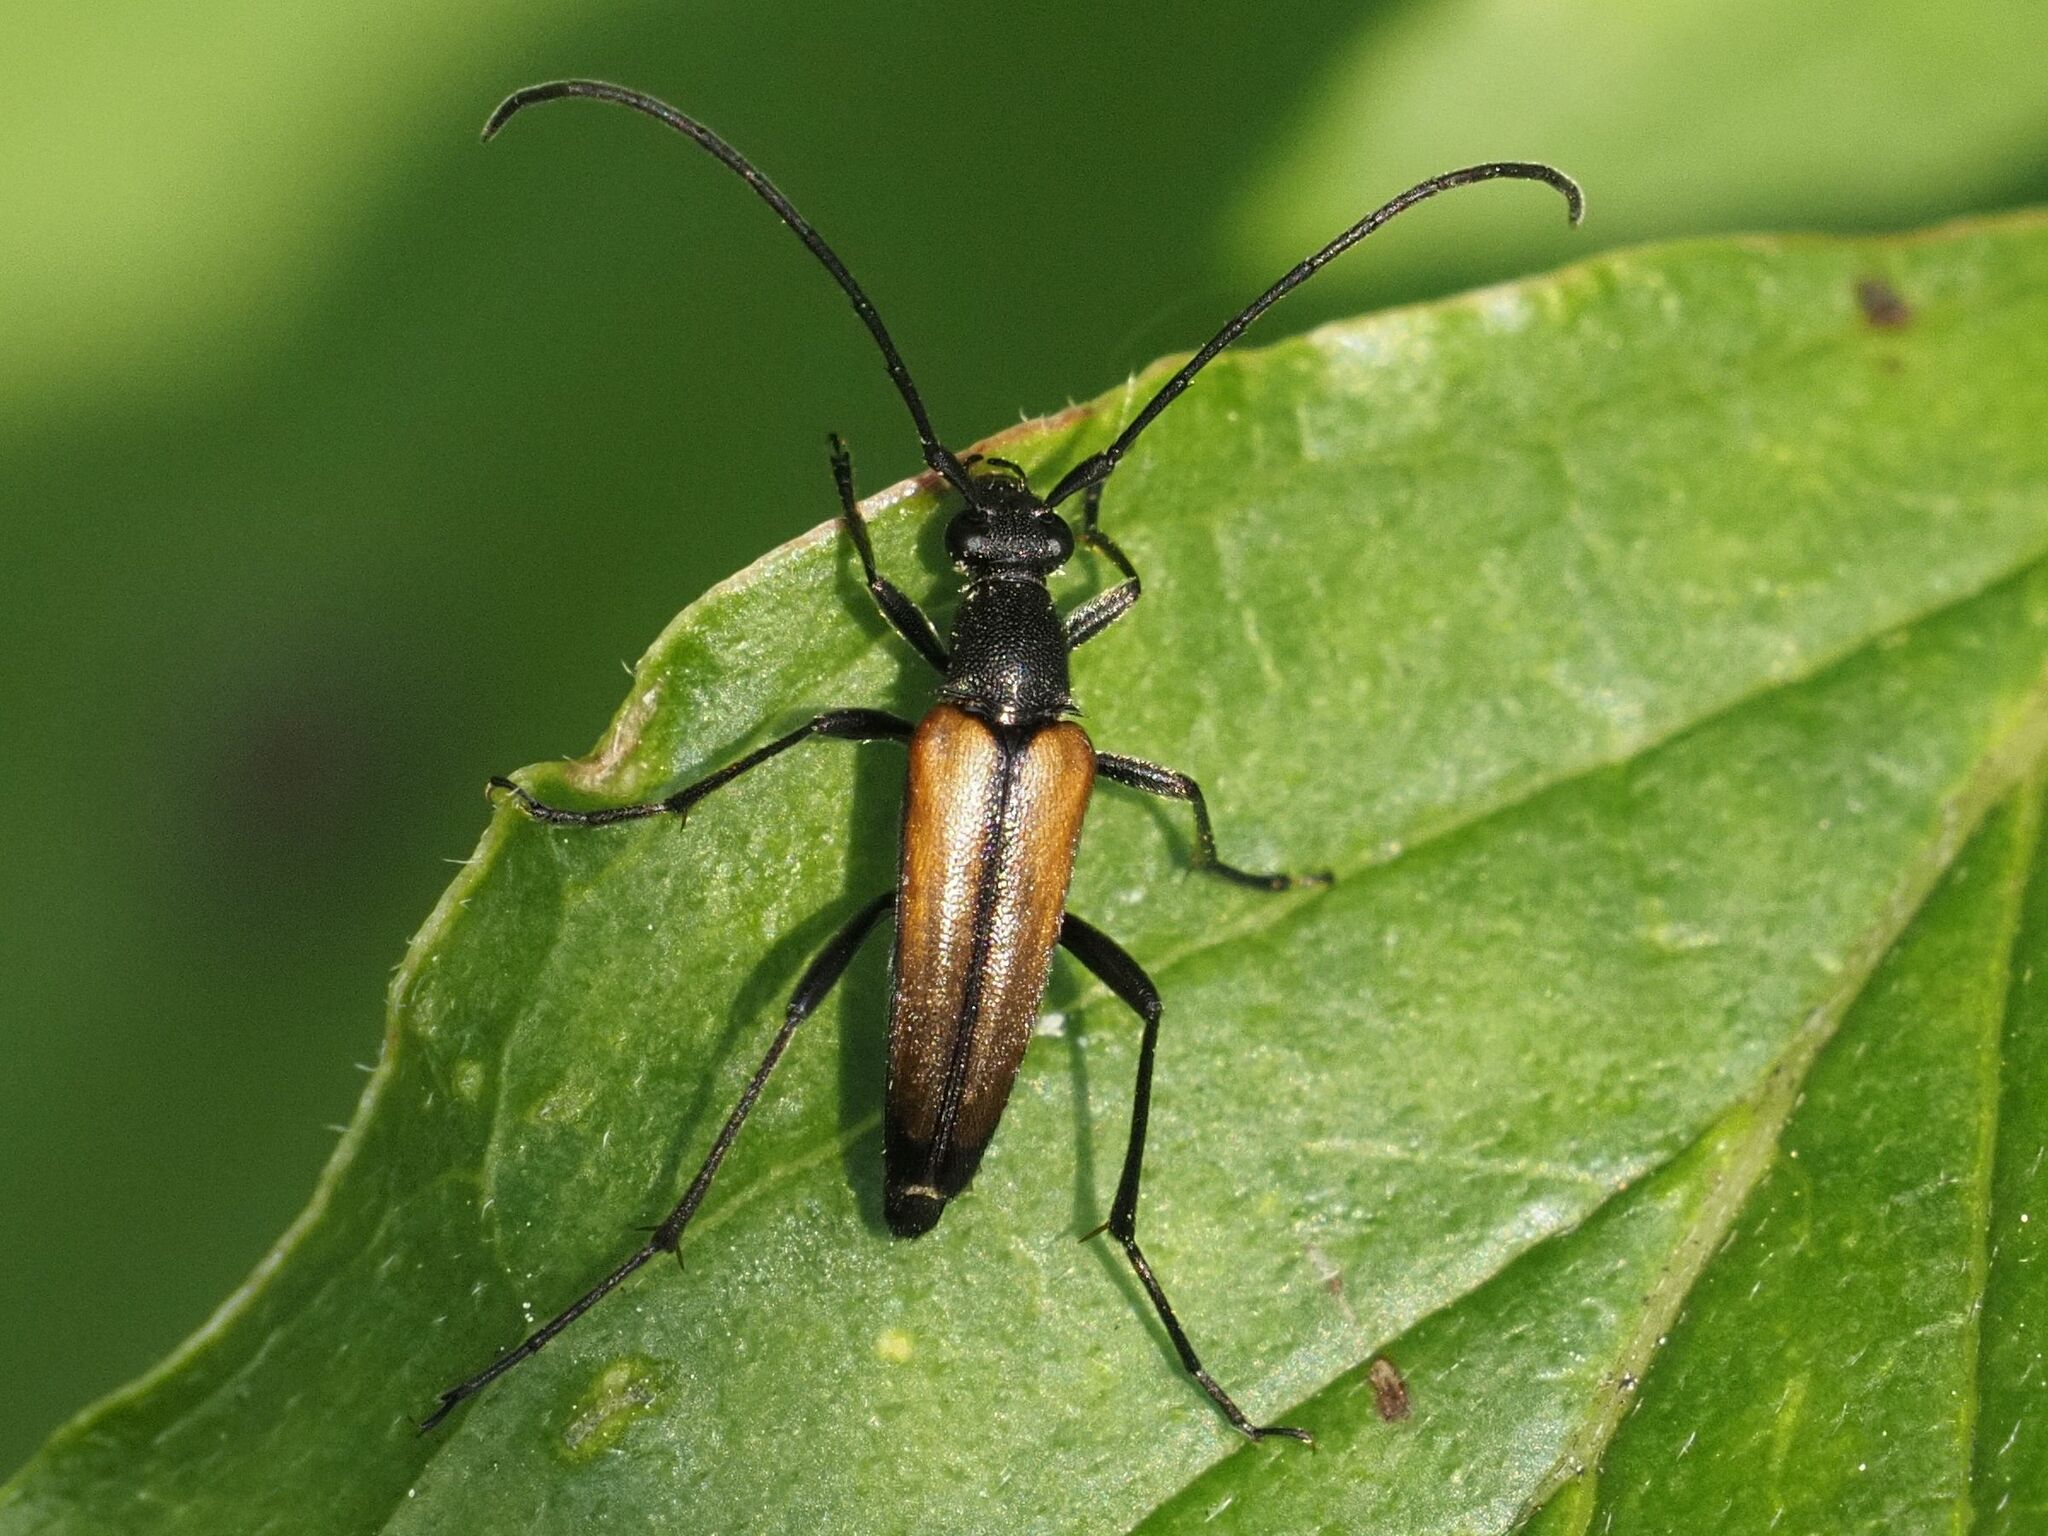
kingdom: Animalia
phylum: Arthropoda
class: Insecta
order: Coleoptera
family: Cerambycidae
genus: Stenurella
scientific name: Stenurella melanura
